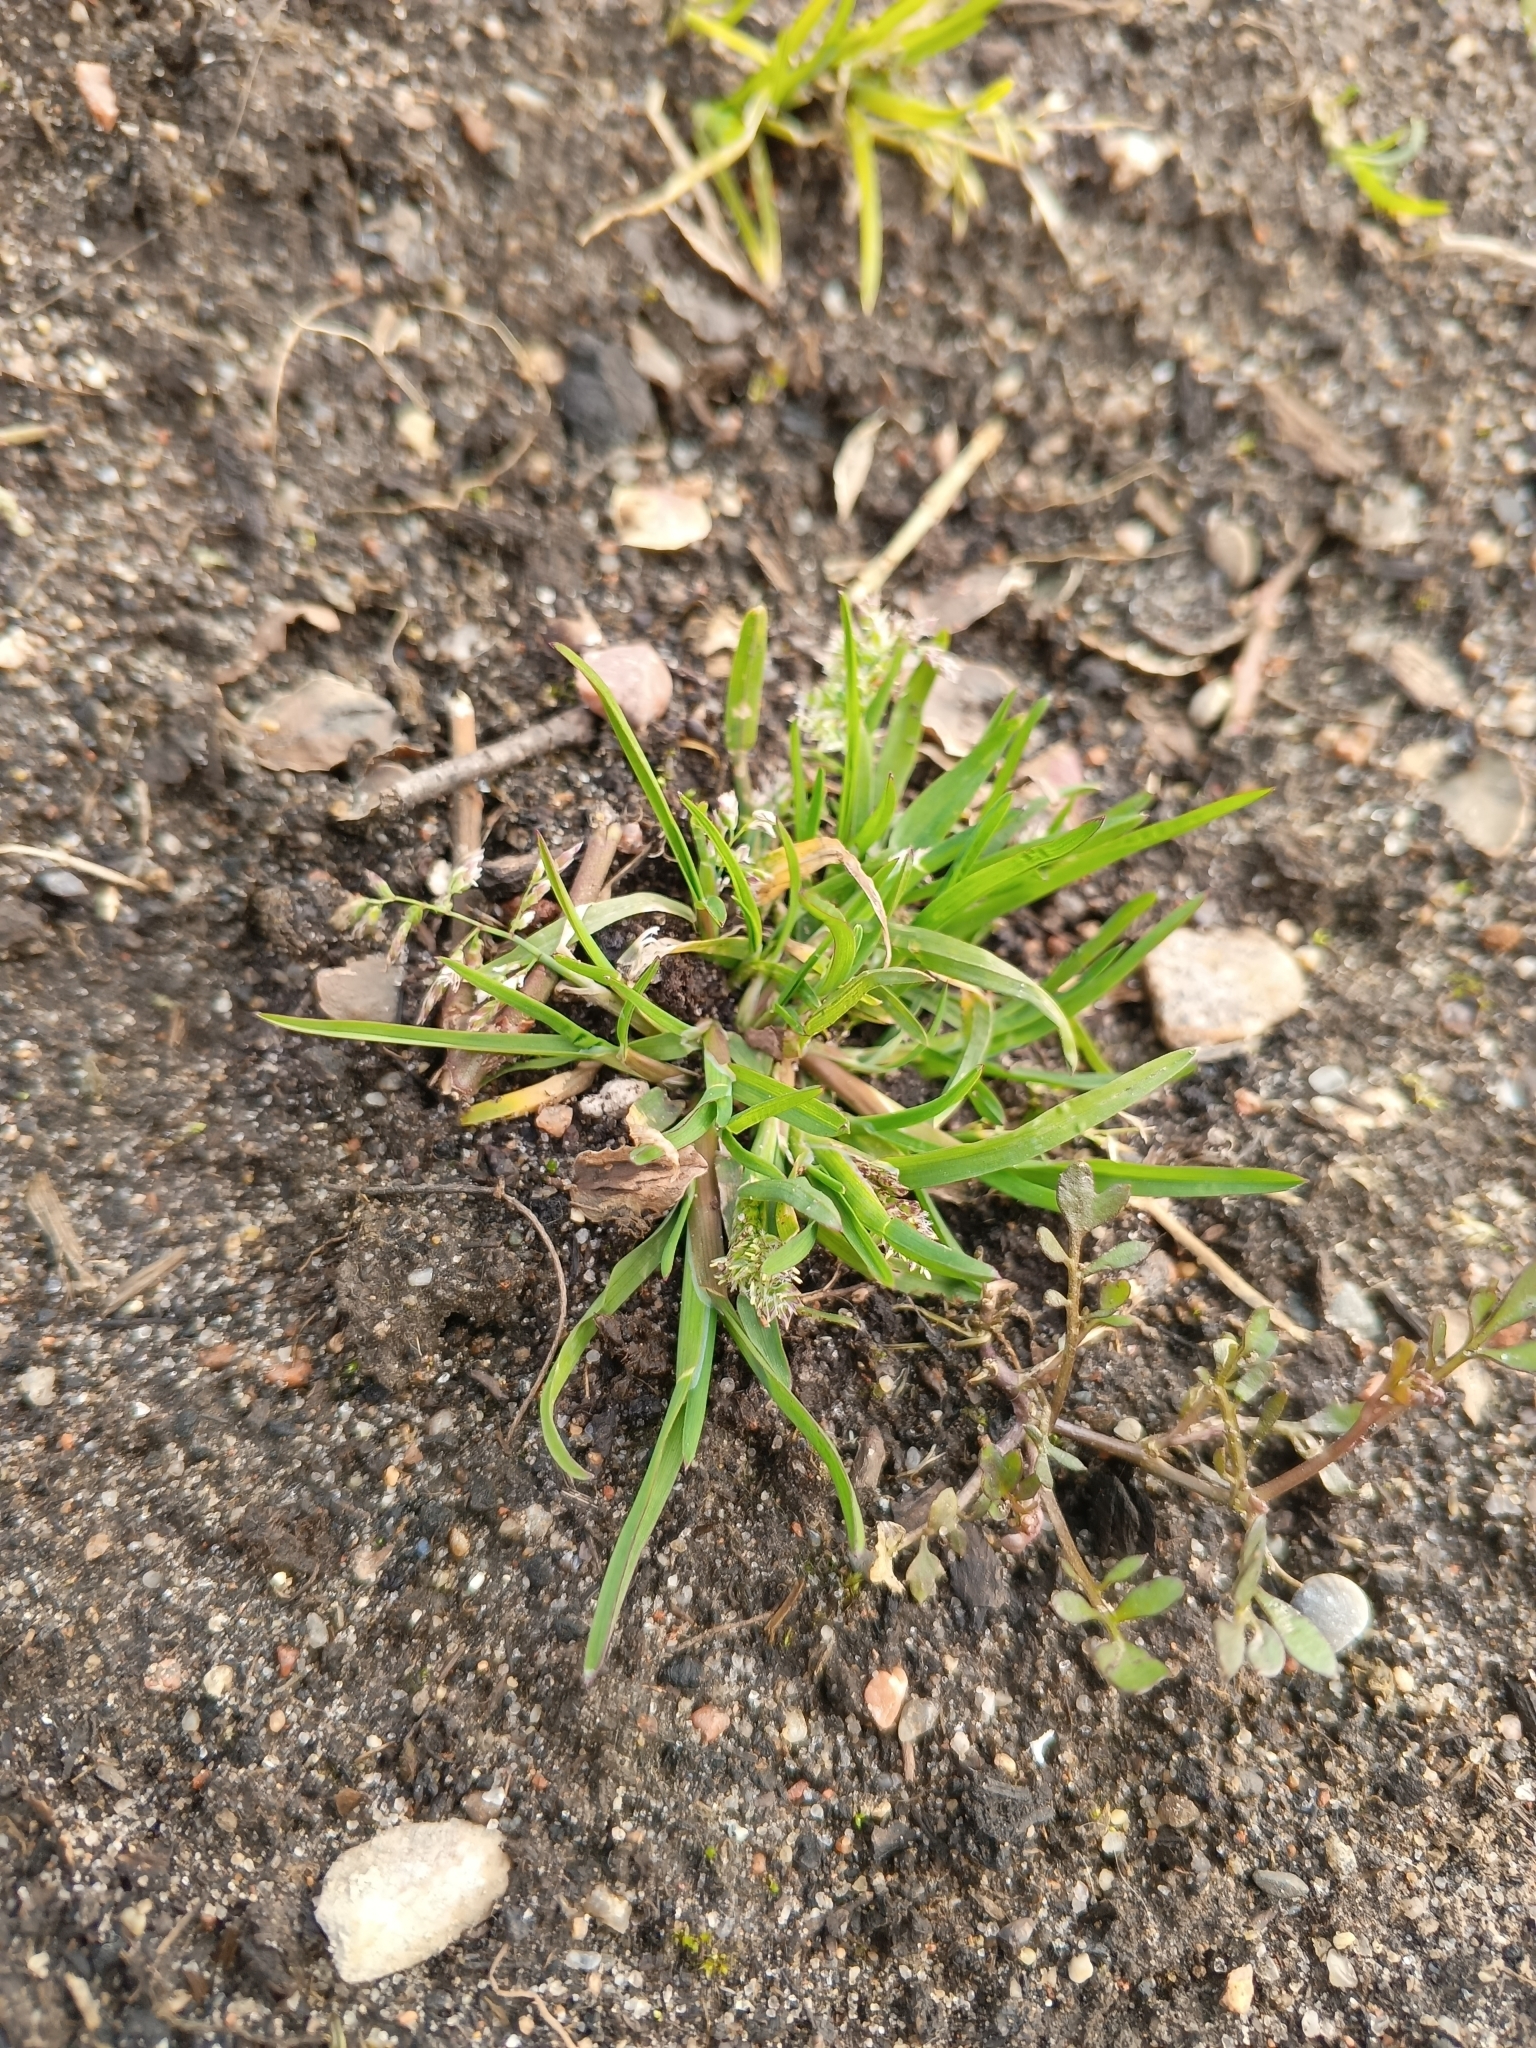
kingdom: Plantae
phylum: Tracheophyta
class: Liliopsida
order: Poales
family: Poaceae
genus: Poa
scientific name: Poa annua
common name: Annual bluegrass
